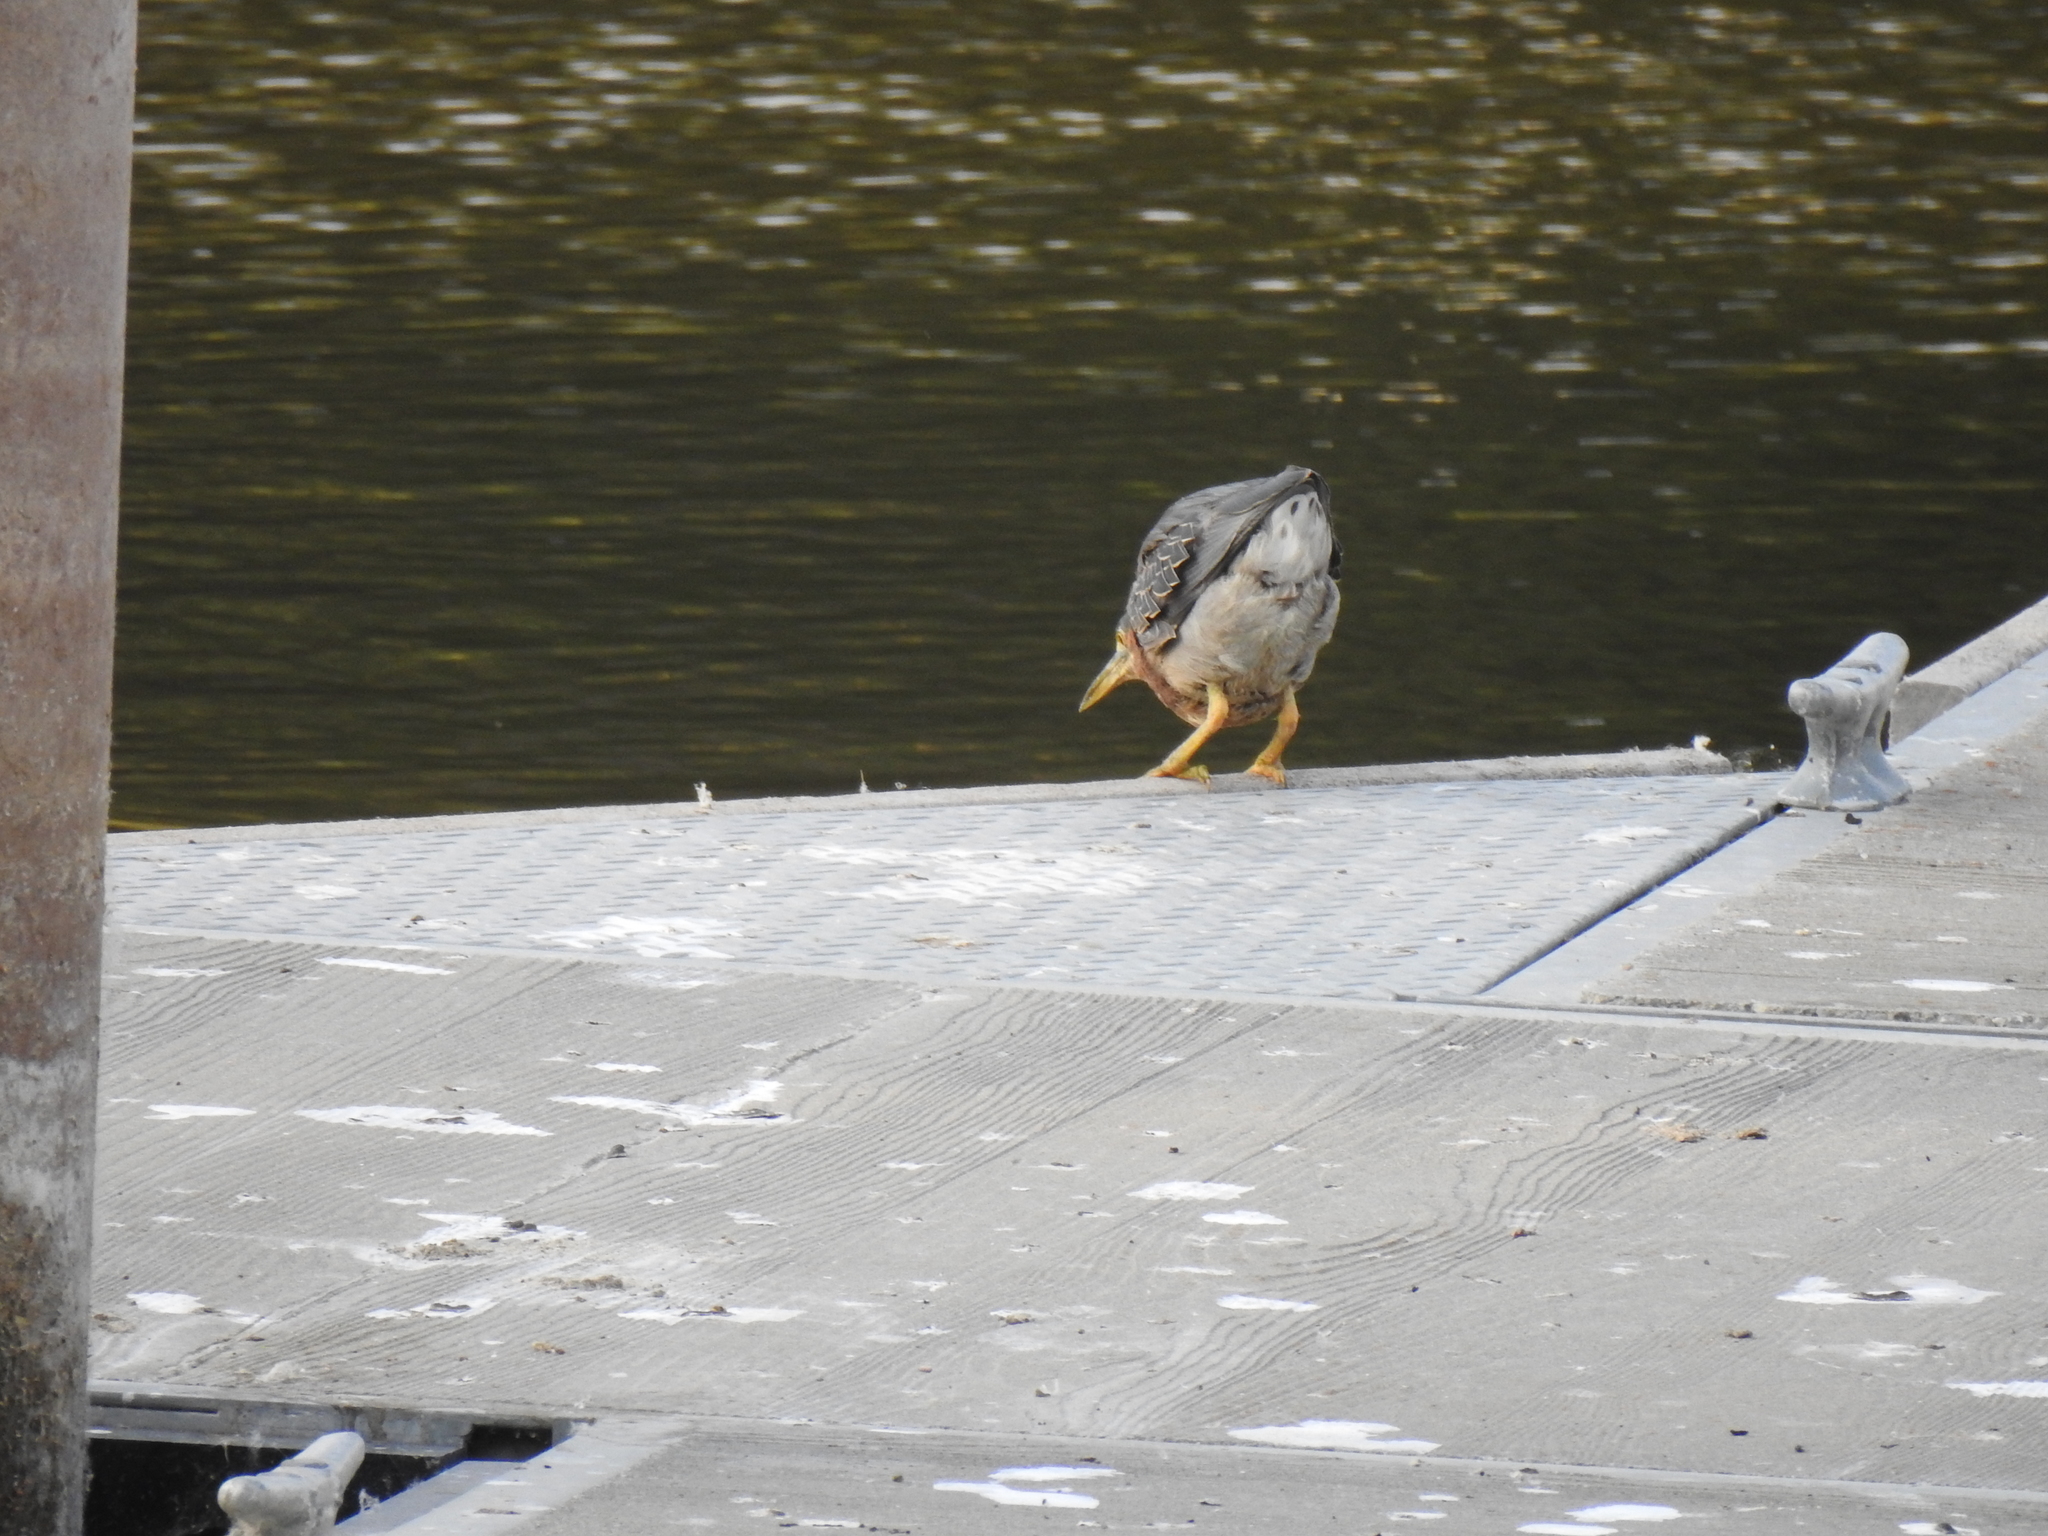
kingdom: Animalia
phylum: Chordata
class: Aves
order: Pelecaniformes
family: Ardeidae
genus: Butorides
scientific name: Butorides virescens
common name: Green heron
